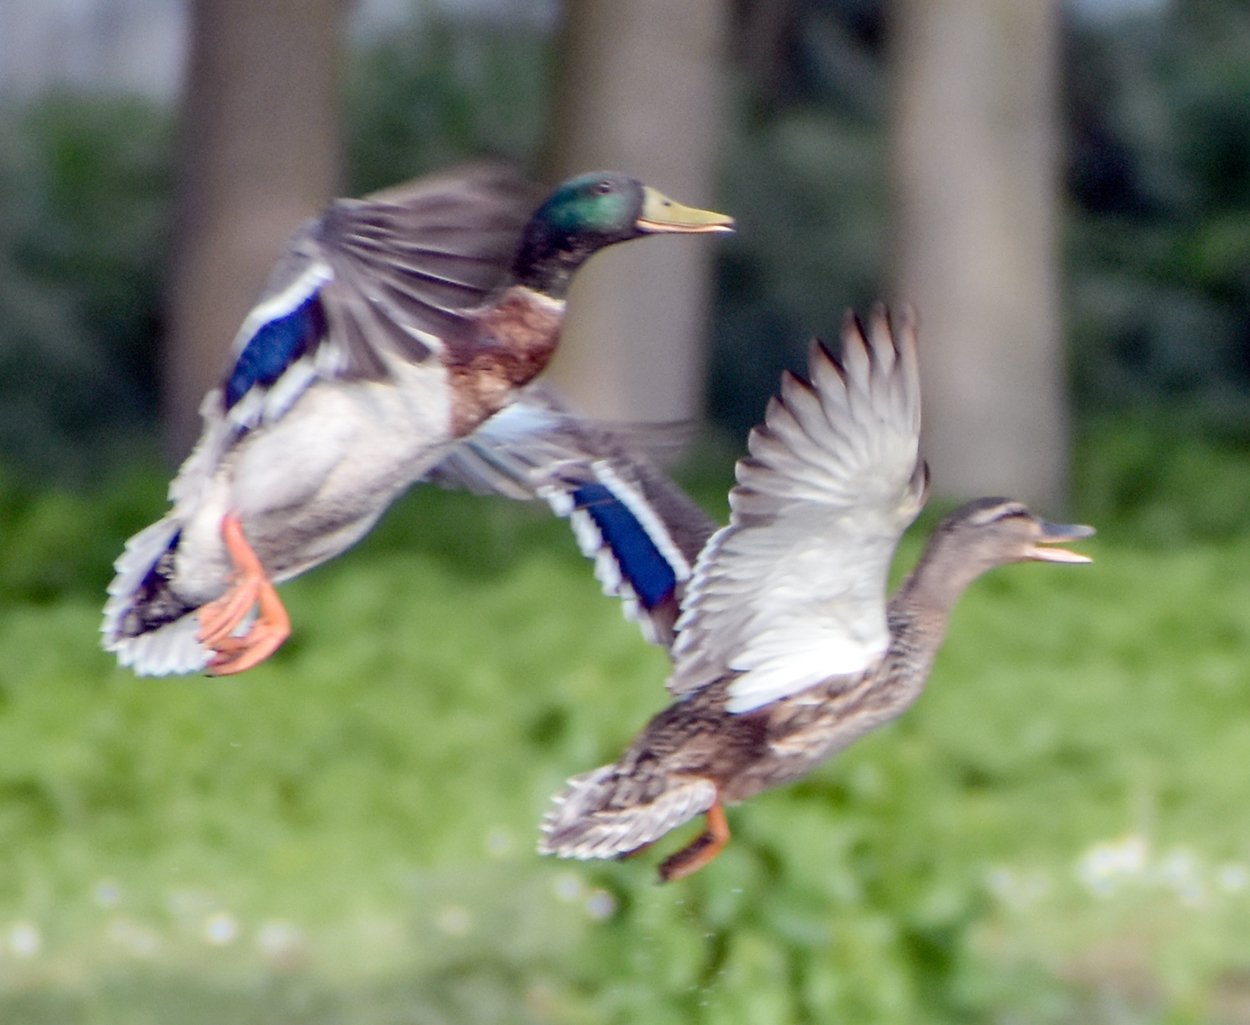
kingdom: Animalia
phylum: Chordata
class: Aves
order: Anseriformes
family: Anatidae
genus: Anas
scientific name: Anas platyrhynchos
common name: Mallard
